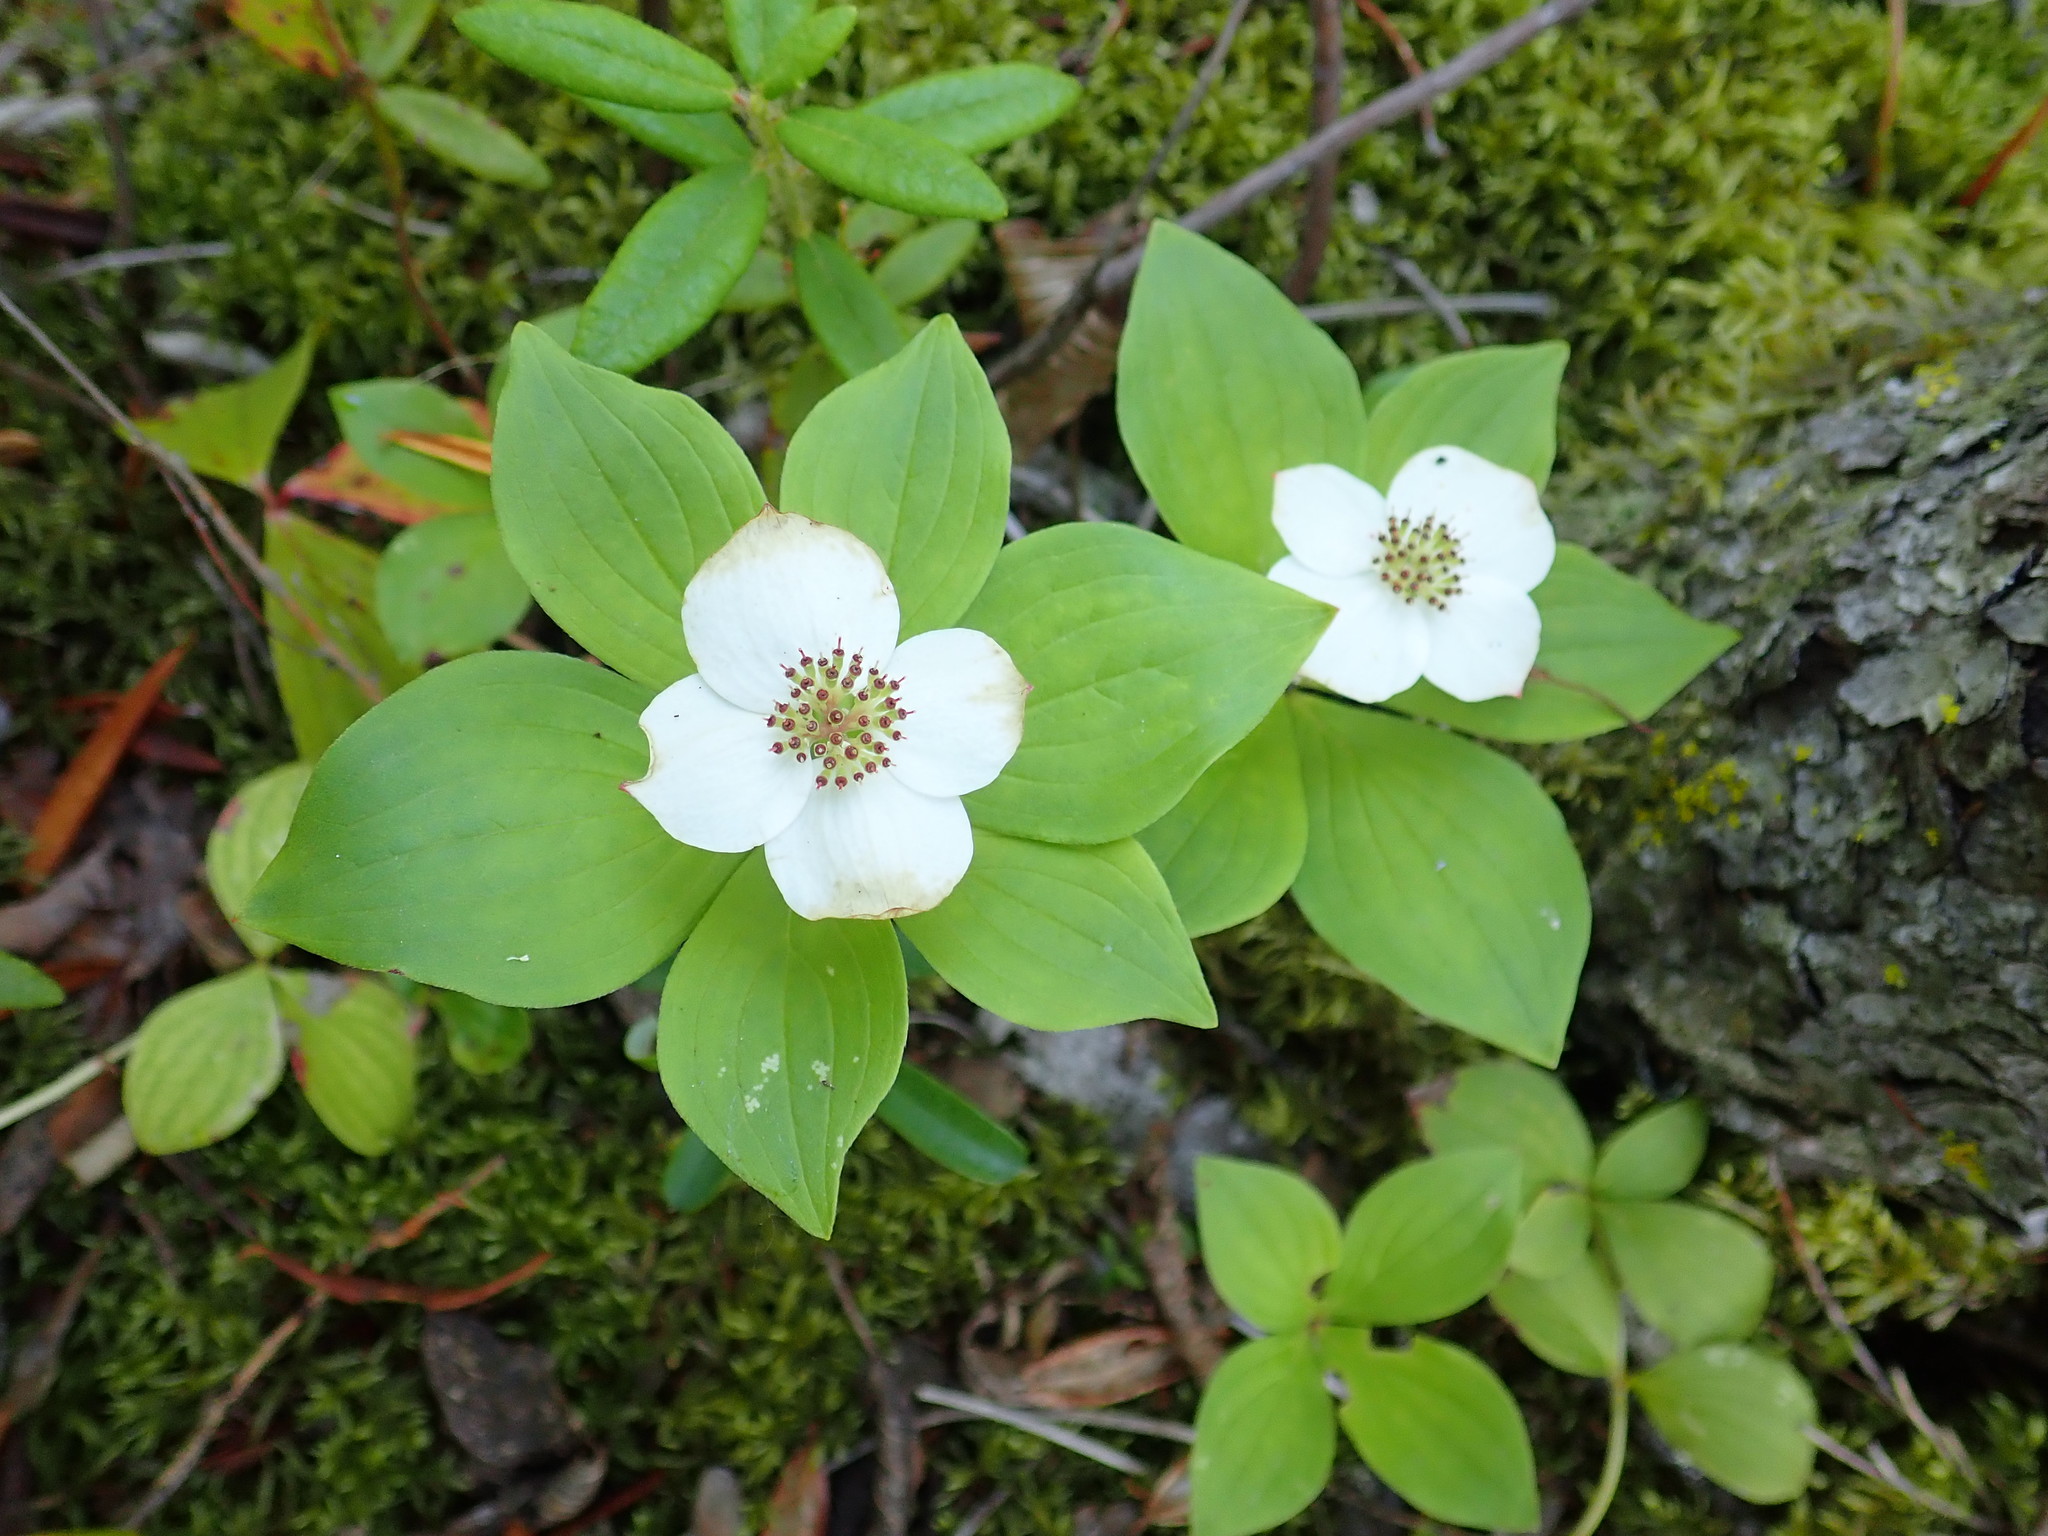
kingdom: Plantae
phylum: Tracheophyta
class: Magnoliopsida
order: Cornales
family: Cornaceae
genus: Cornus
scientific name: Cornus canadensis
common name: Creeping dogwood
